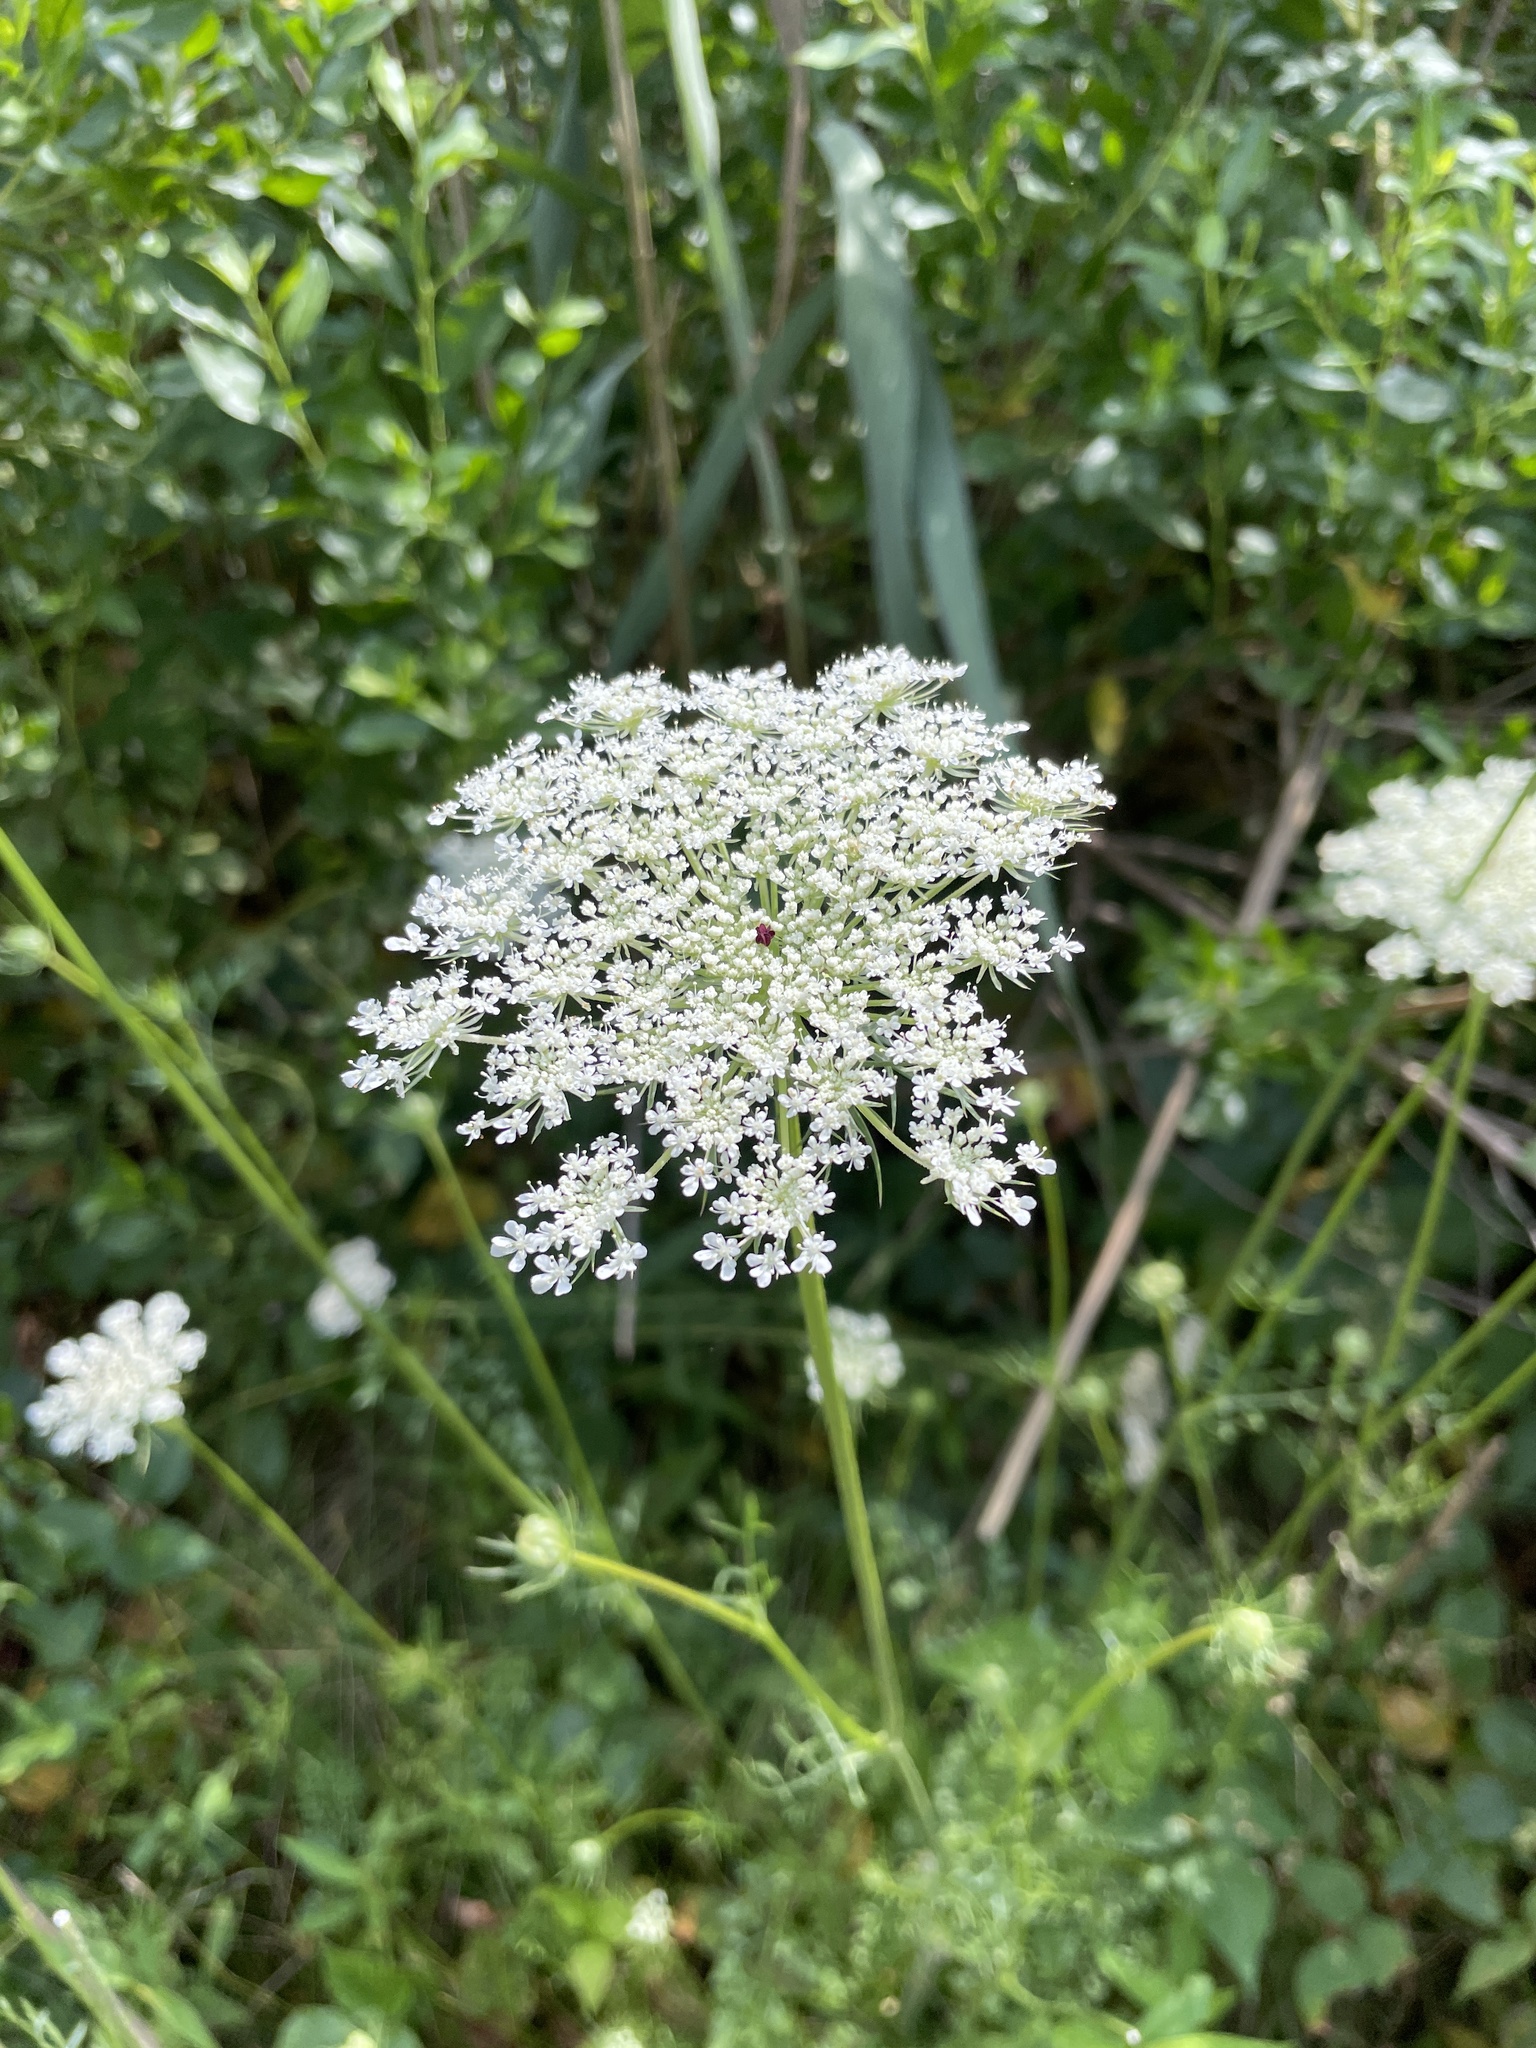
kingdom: Plantae
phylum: Tracheophyta
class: Magnoliopsida
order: Apiales
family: Apiaceae
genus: Daucus
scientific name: Daucus carota
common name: Wild carrot
